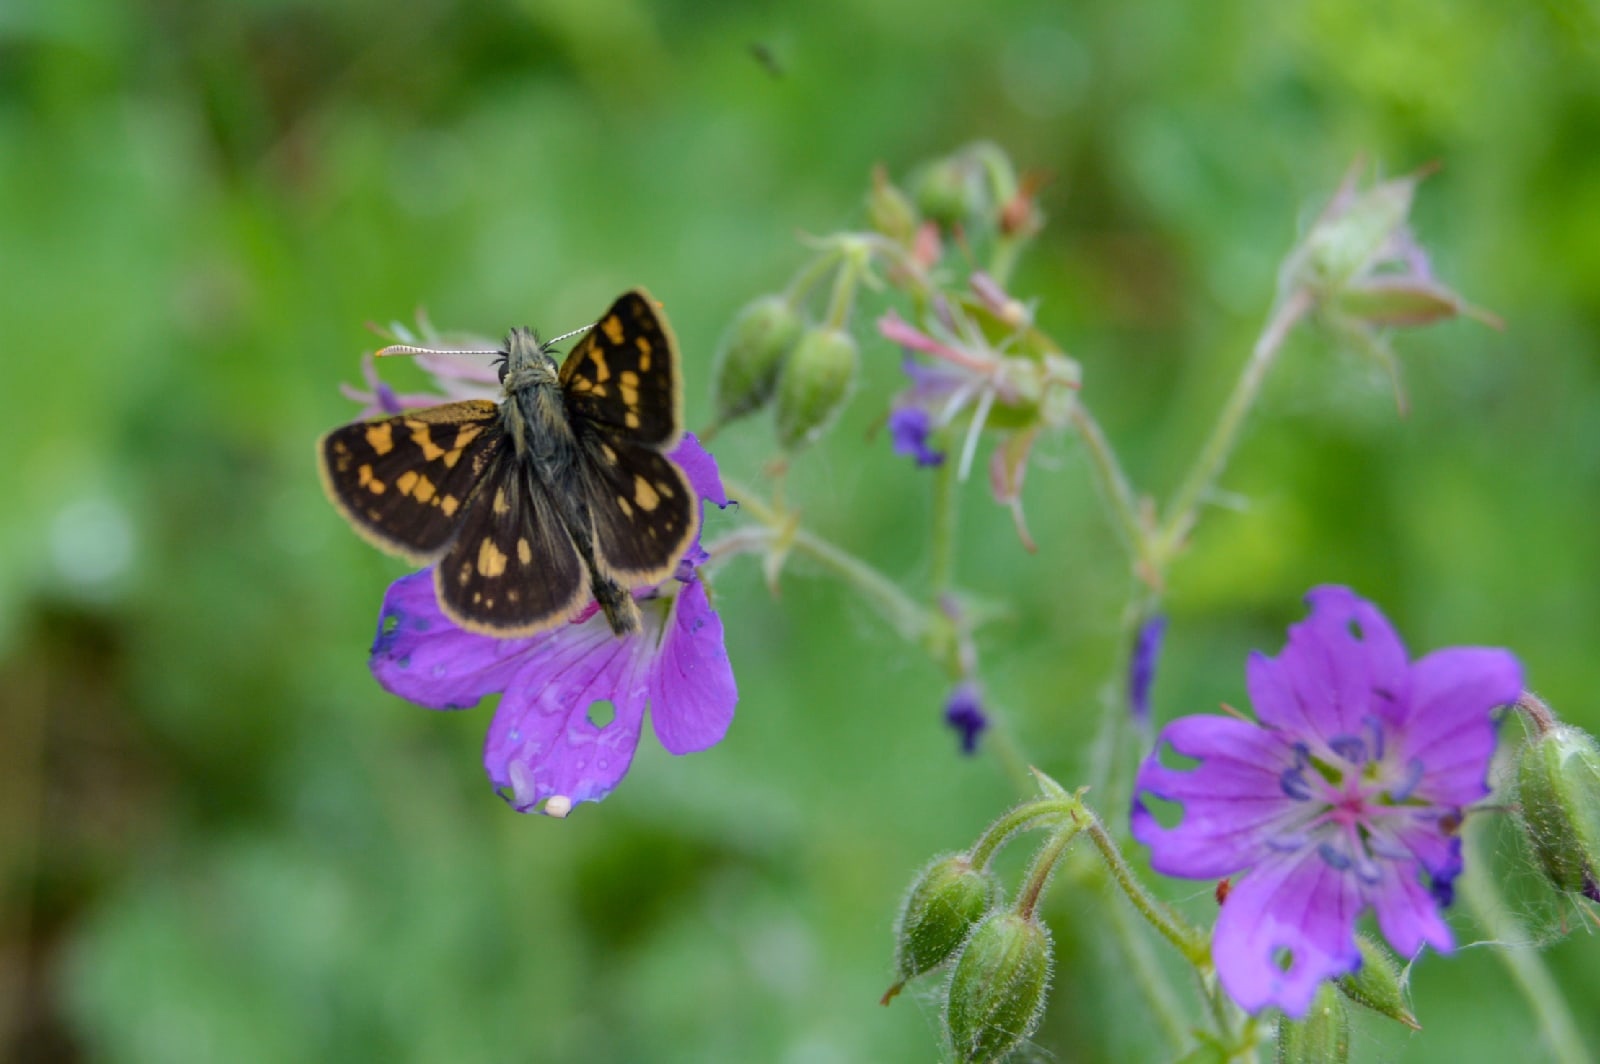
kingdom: Animalia
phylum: Arthropoda
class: Insecta
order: Lepidoptera
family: Hesperiidae
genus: Carterocephalus
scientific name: Carterocephalus palaemon
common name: Chequered skipper
